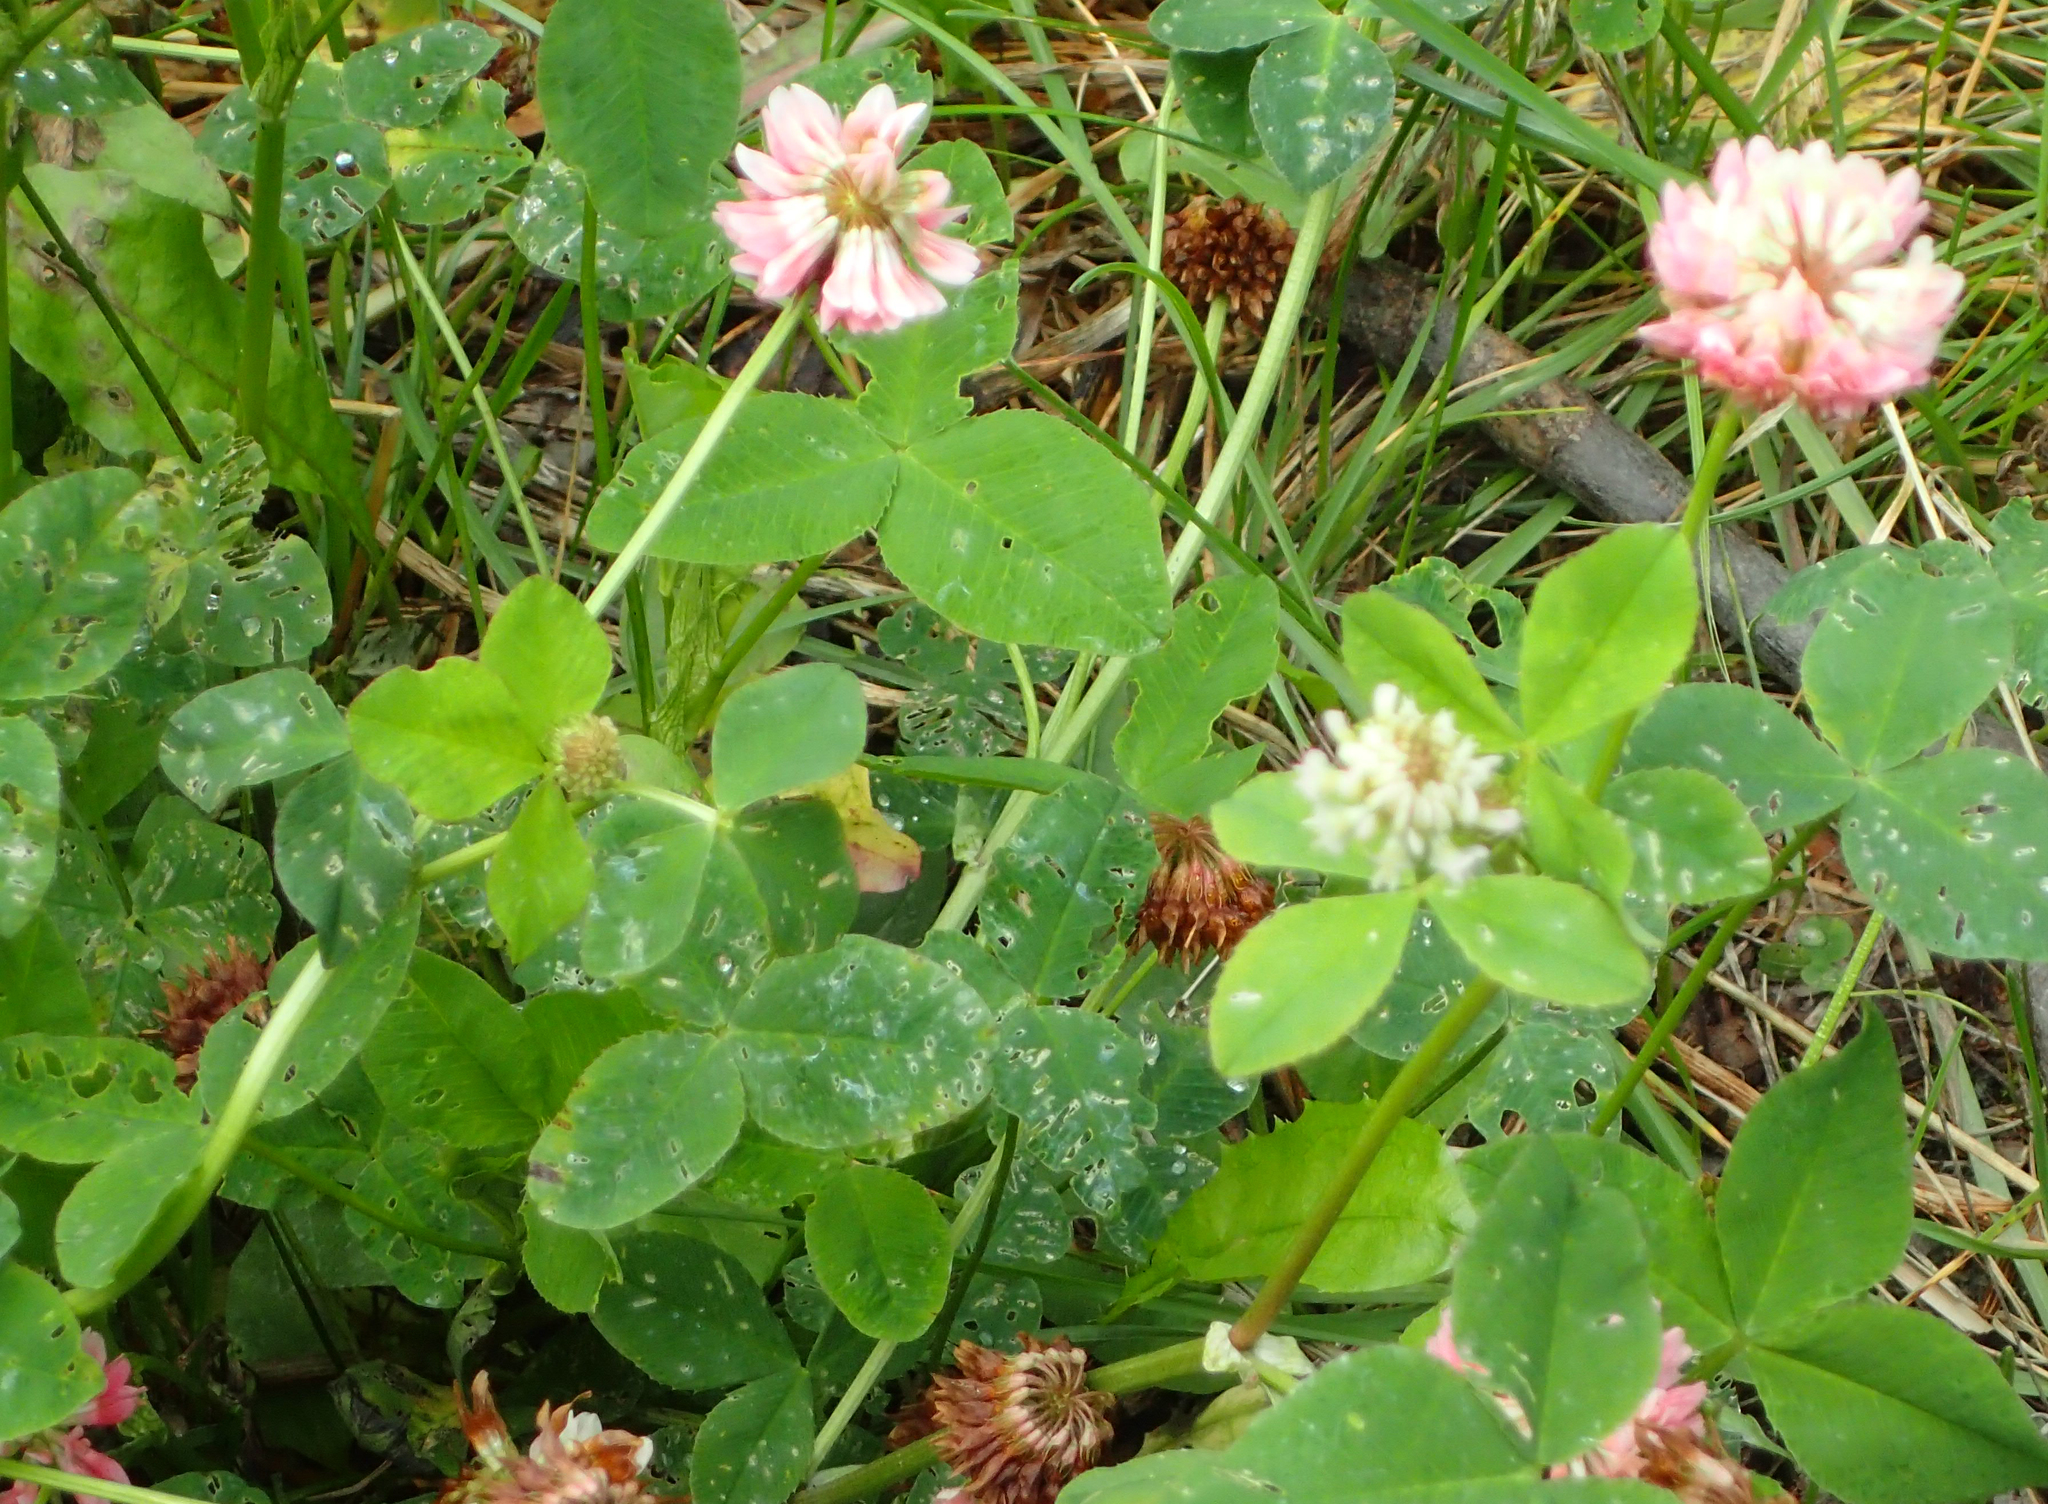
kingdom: Plantae
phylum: Tracheophyta
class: Magnoliopsida
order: Fabales
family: Fabaceae
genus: Trifolium
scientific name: Trifolium hybridum
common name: Alsike clover
